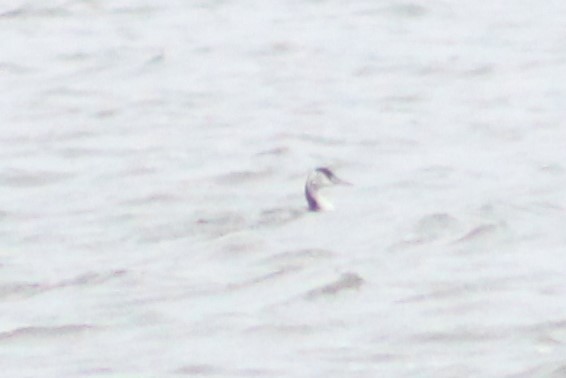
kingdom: Animalia
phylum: Chordata
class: Aves
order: Podicipediformes
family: Podicipedidae
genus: Podiceps
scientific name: Podiceps cristatus
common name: Great crested grebe
